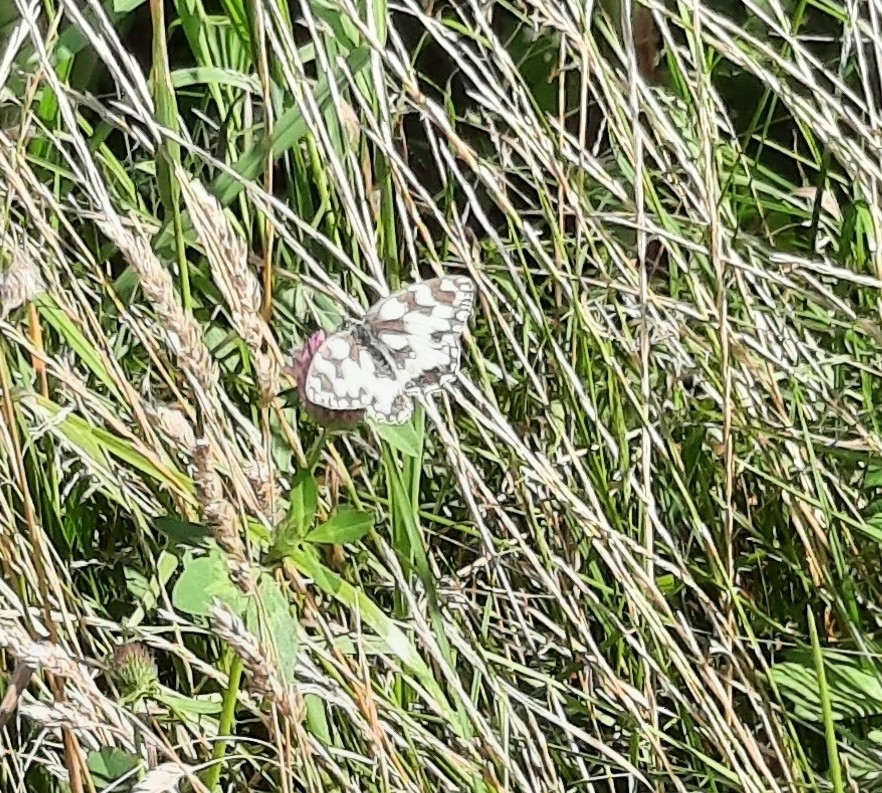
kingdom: Animalia
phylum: Arthropoda
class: Insecta
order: Lepidoptera
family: Nymphalidae
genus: Melanargia
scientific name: Melanargia galathea
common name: Marbled white
